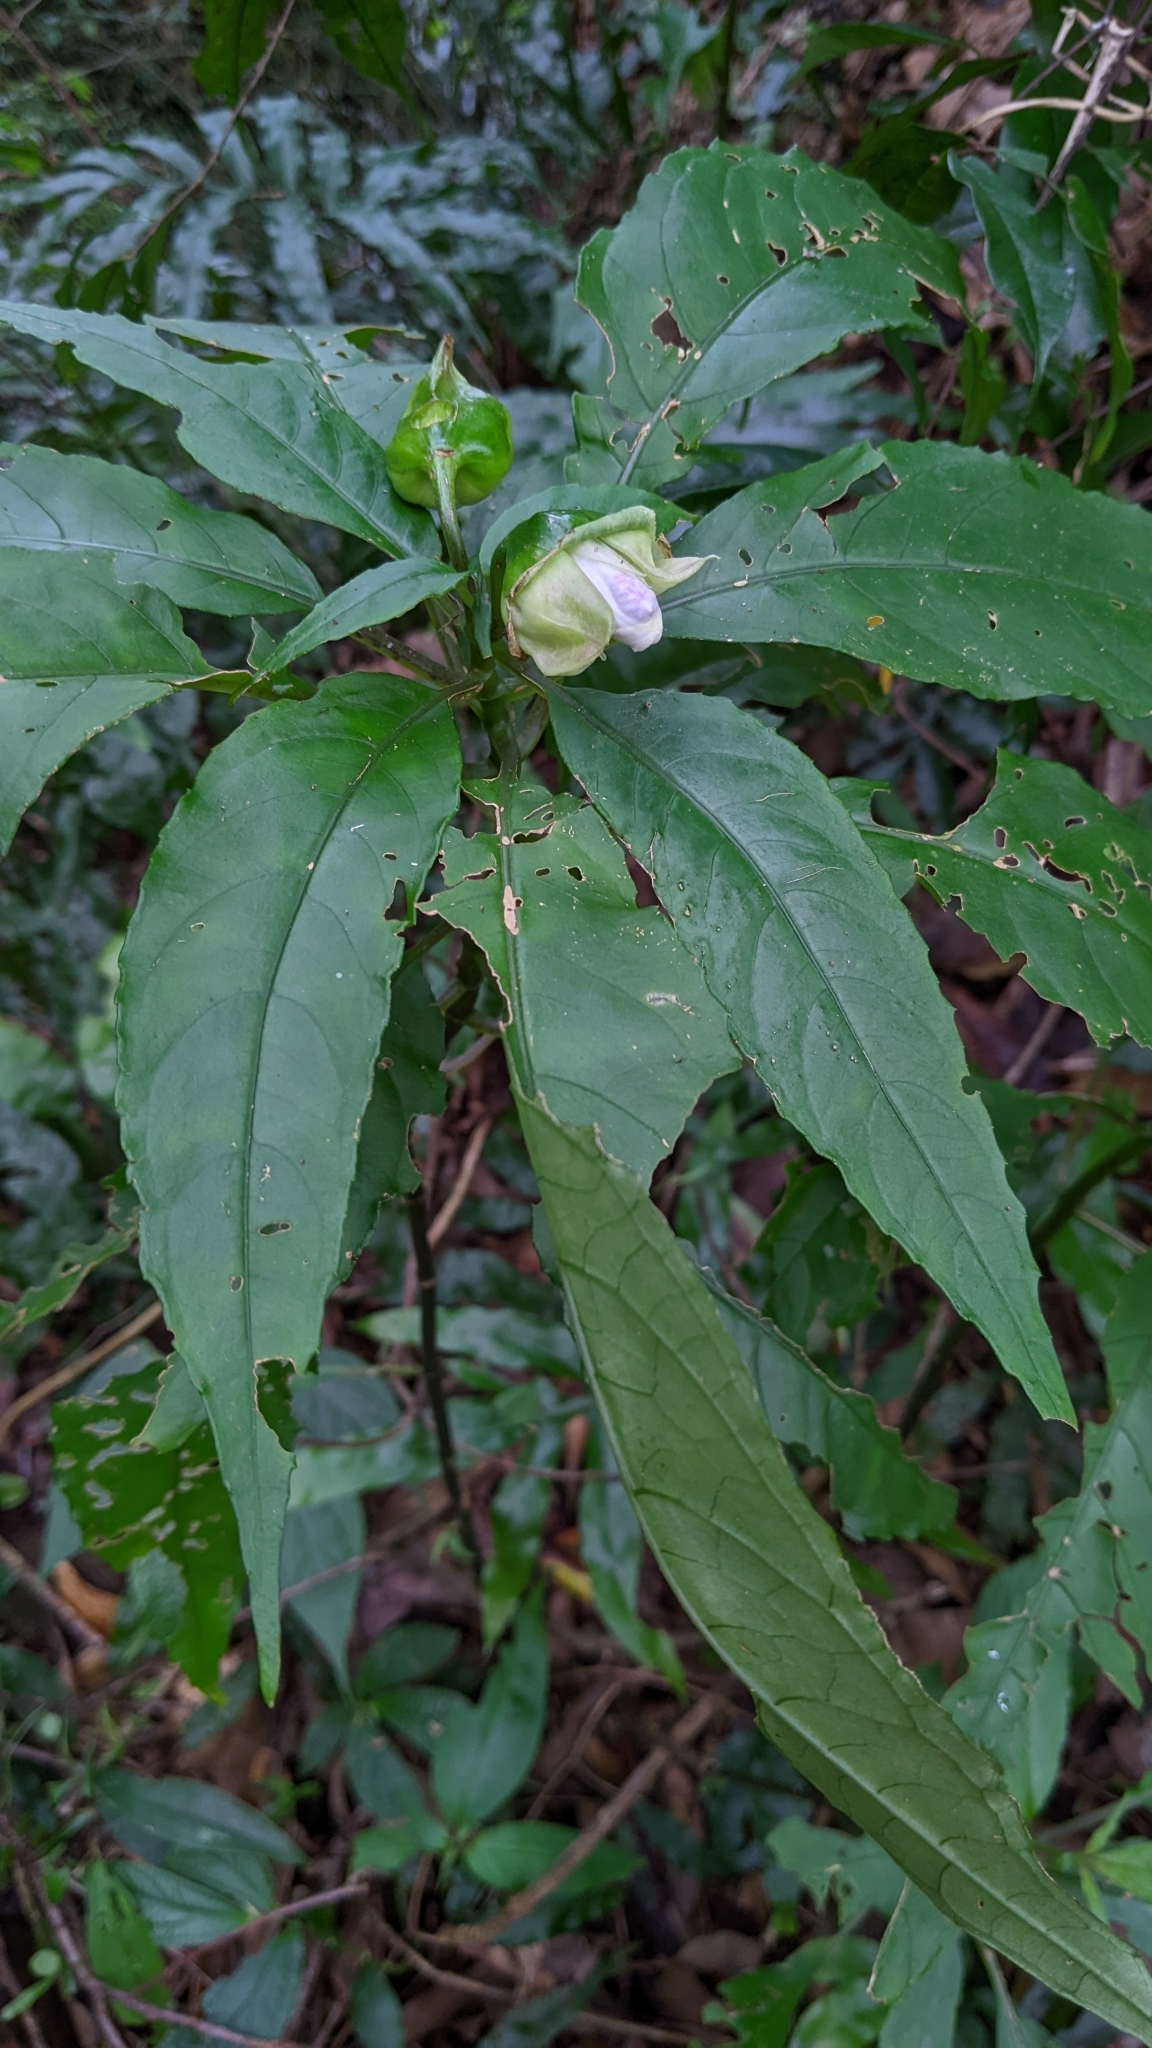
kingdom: Plantae
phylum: Tracheophyta
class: Magnoliopsida
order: Lamiales
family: Gesneriaceae
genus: Hemiboea
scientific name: Hemiboea bicornuta
